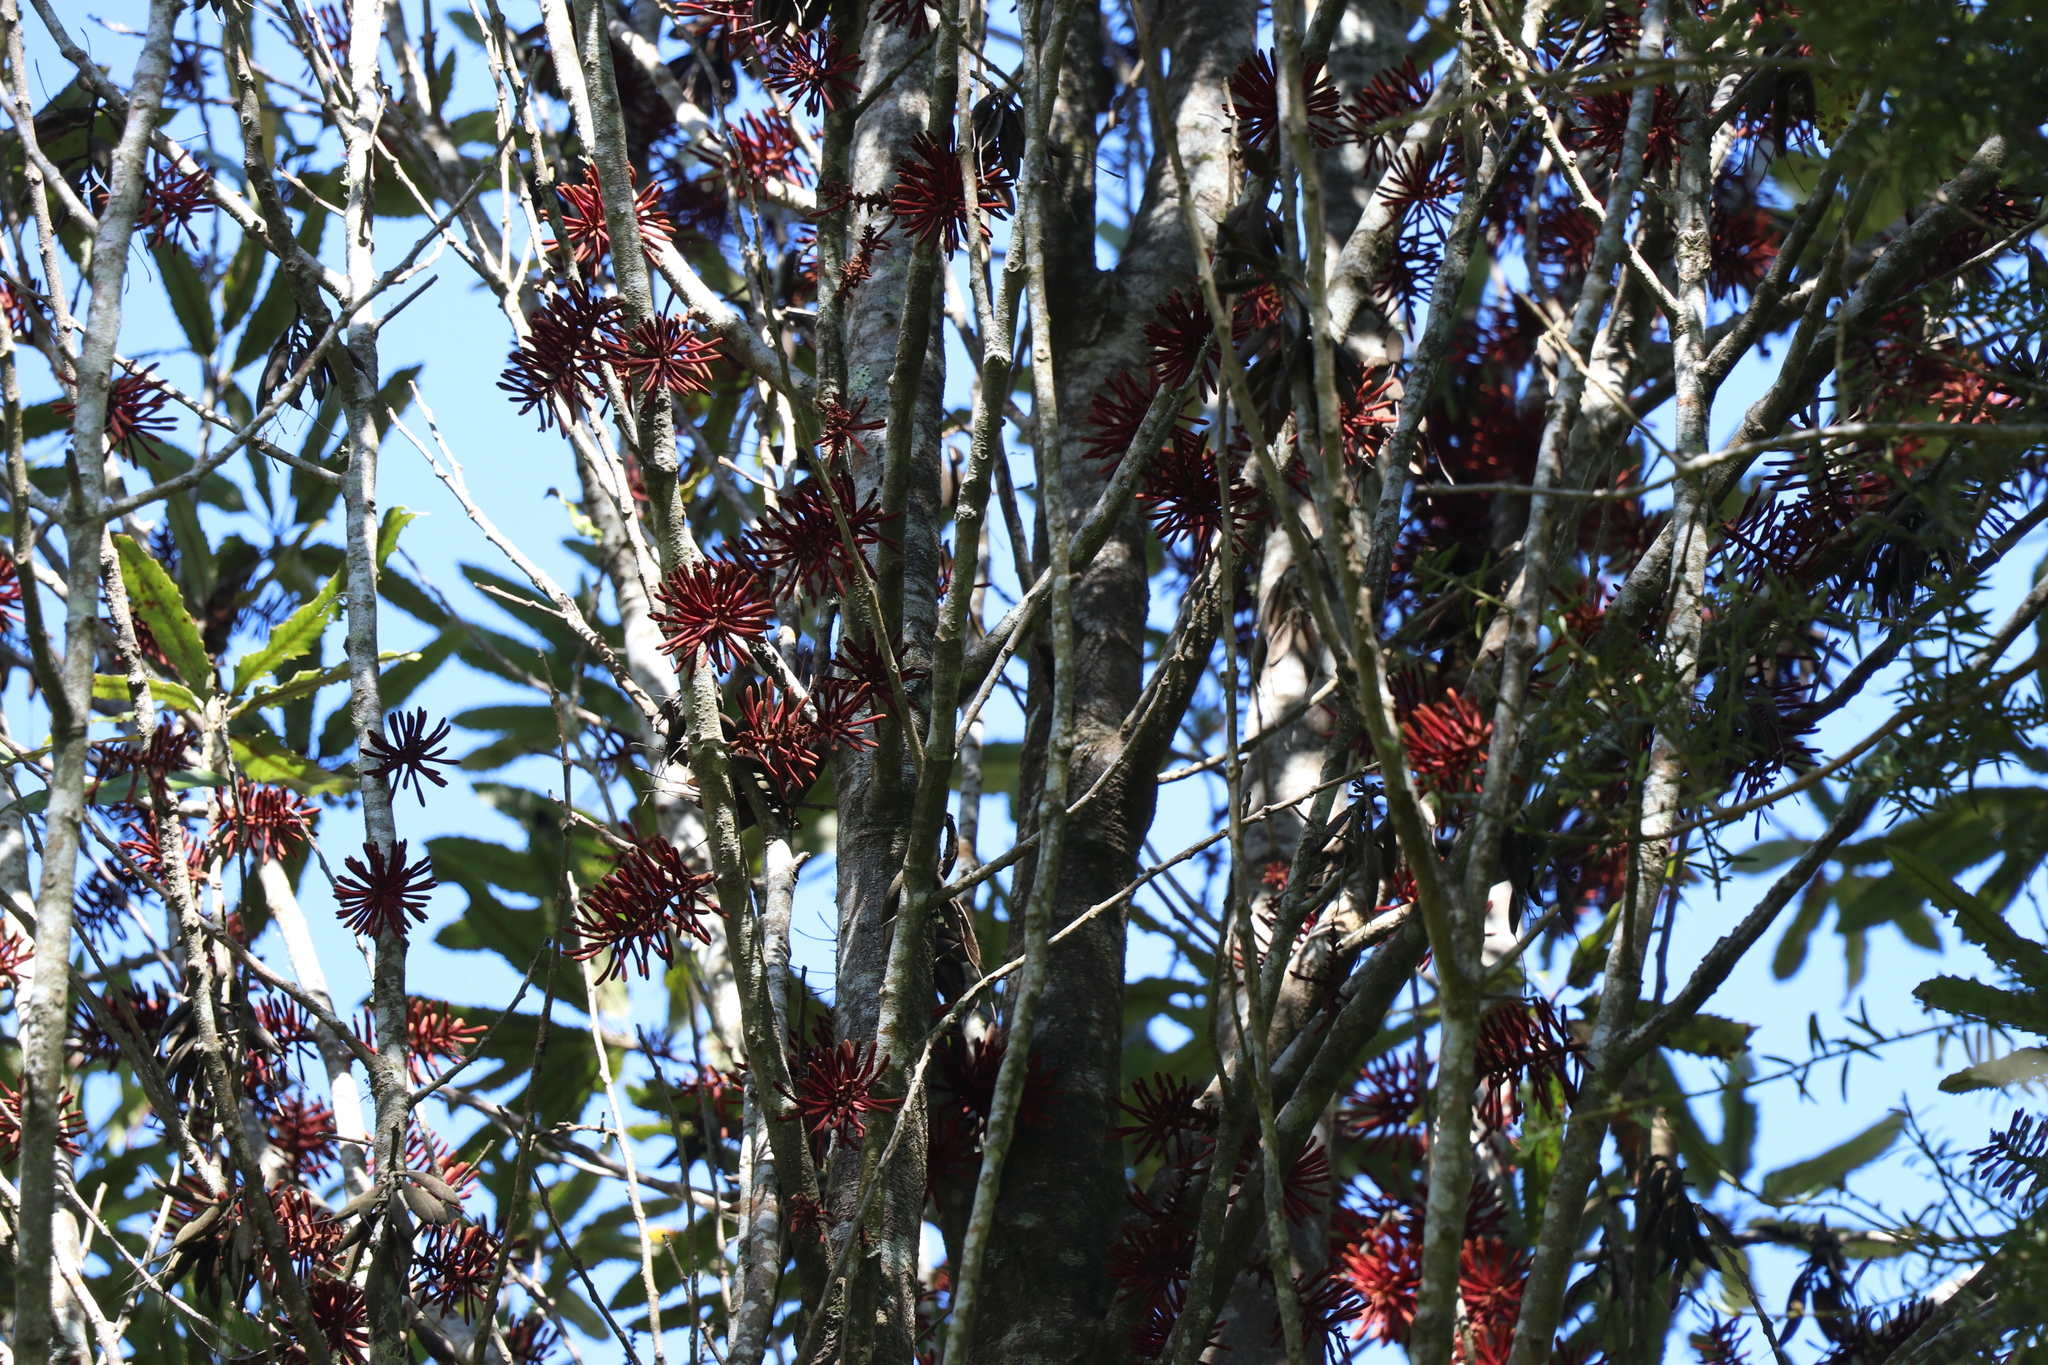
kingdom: Plantae
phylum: Tracheophyta
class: Magnoliopsida
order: Proteales
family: Proteaceae
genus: Knightia
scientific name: Knightia excelsa
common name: New zealand-honeysuckle
